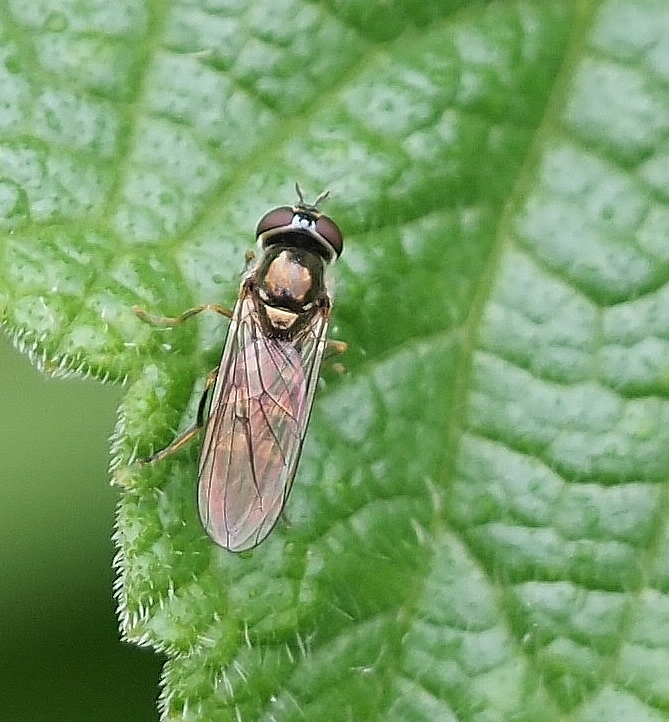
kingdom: Animalia
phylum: Arthropoda
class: Insecta
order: Diptera
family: Syrphidae
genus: Platycheirus
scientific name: Platycheirus
